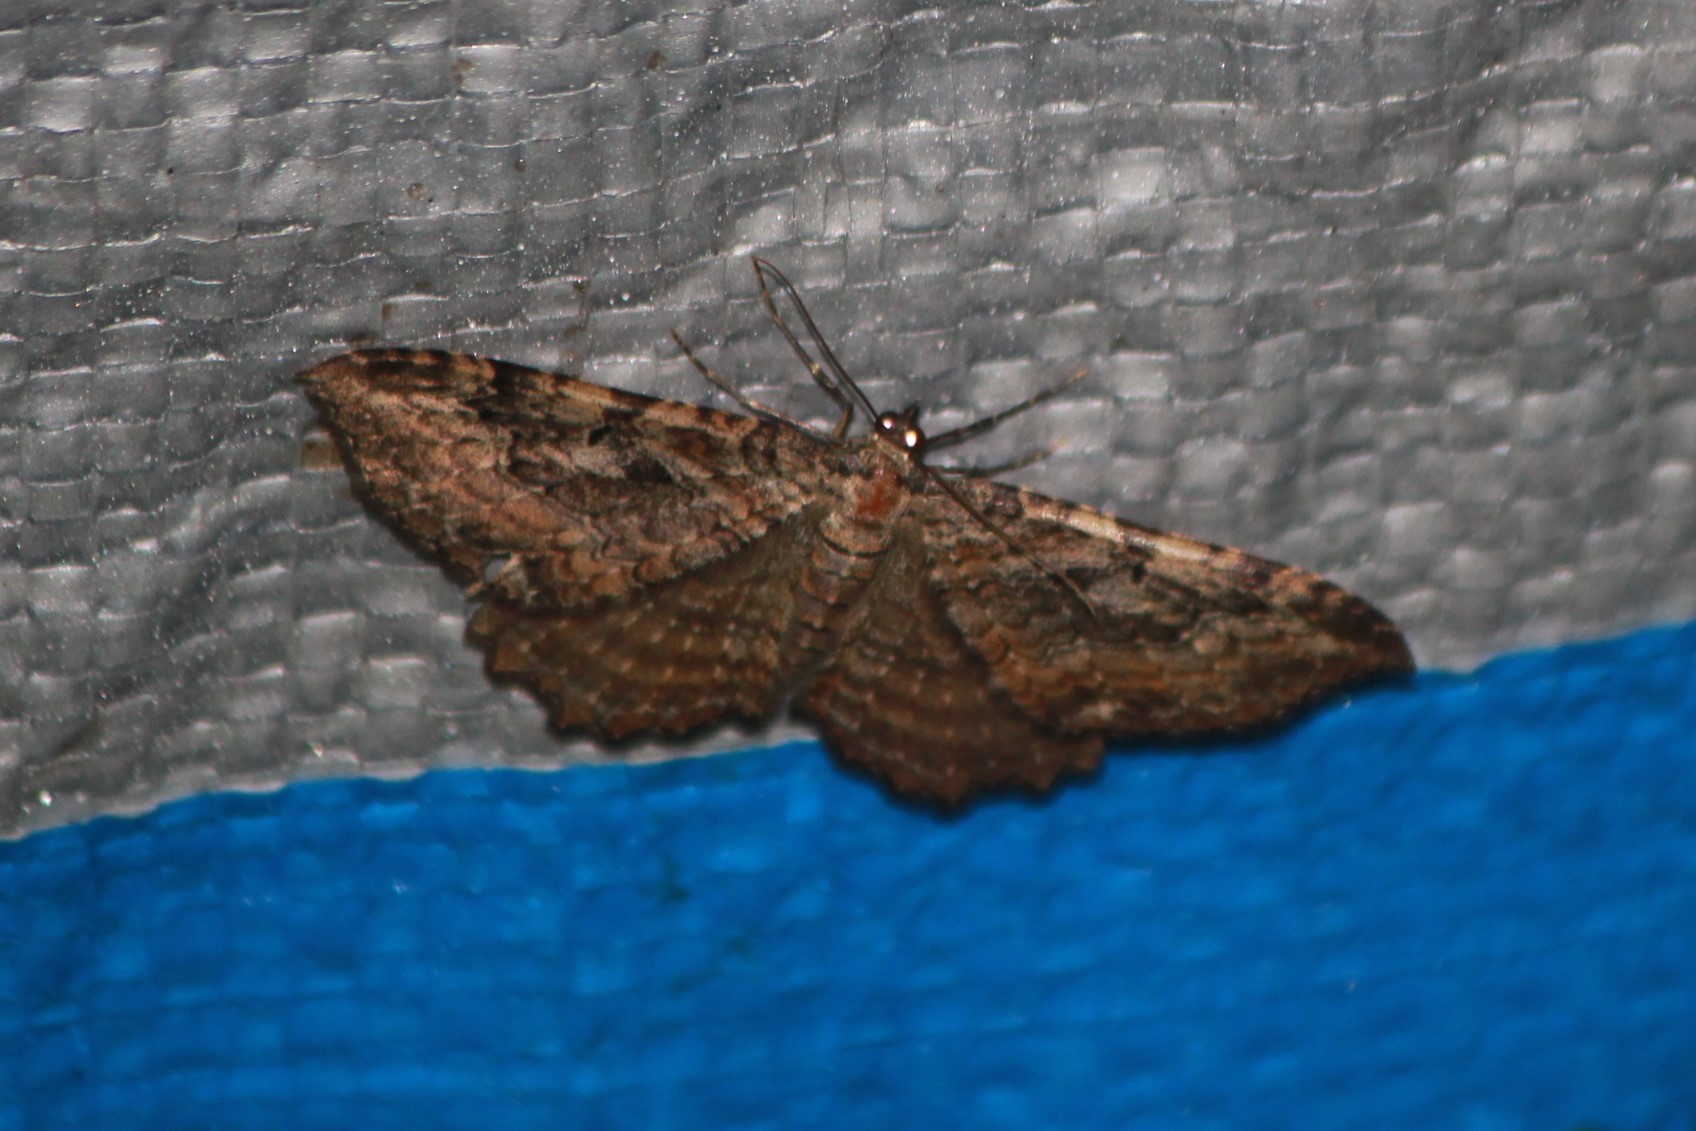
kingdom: Animalia
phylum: Arthropoda
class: Insecta
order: Lepidoptera
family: Geometridae
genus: Rheumaptera
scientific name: Rheumaptera
